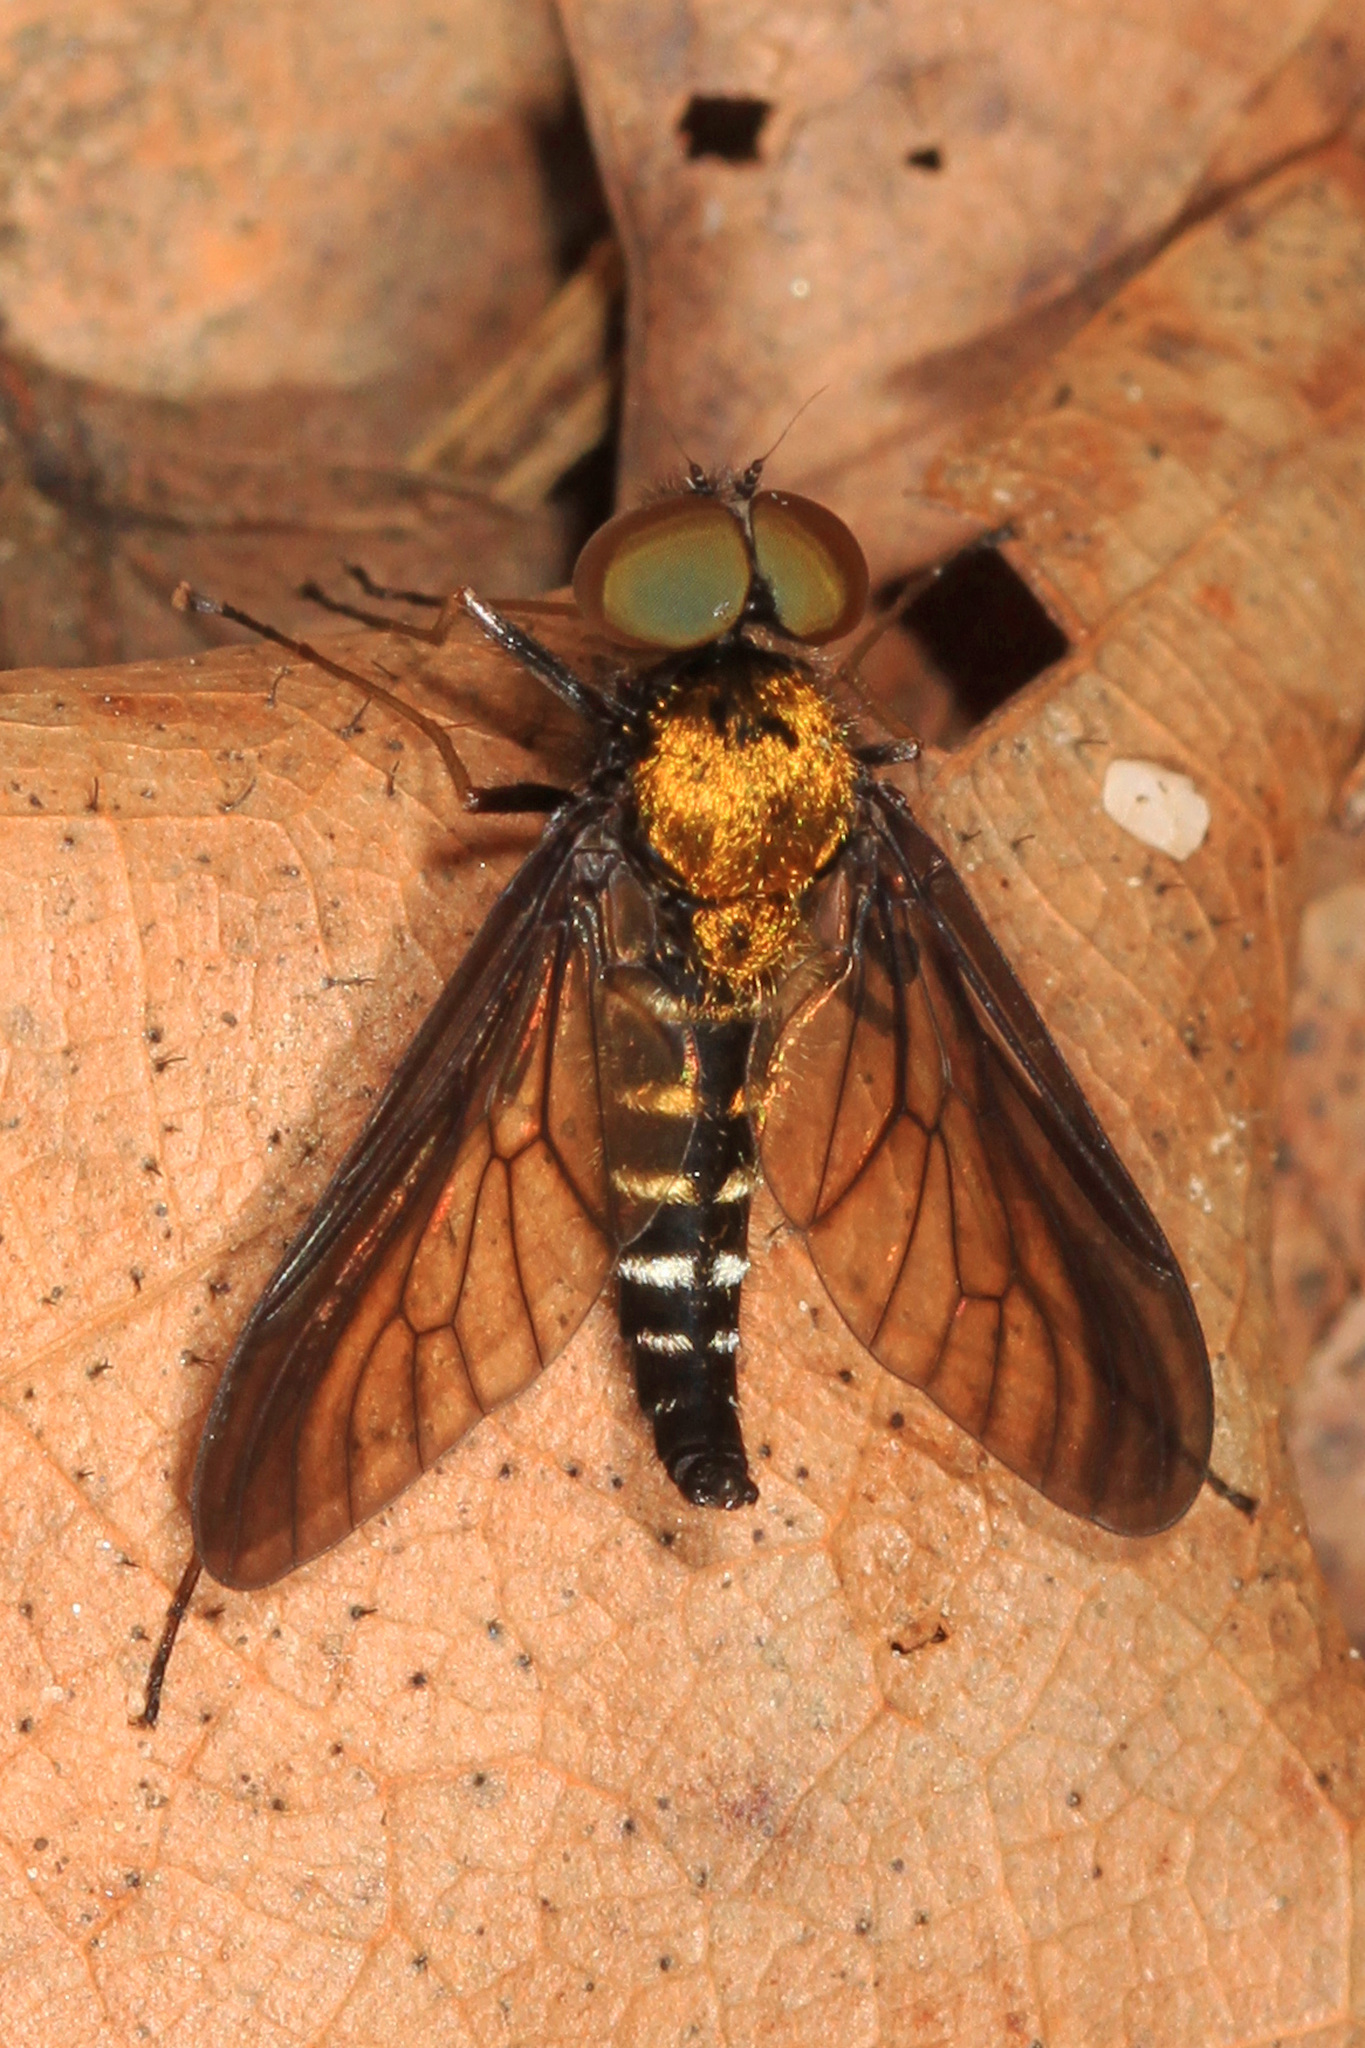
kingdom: Animalia
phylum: Arthropoda
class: Insecta
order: Diptera
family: Rhagionidae
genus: Chrysopilus
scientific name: Chrysopilus thoracicus
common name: Golden-backed snipe fly
